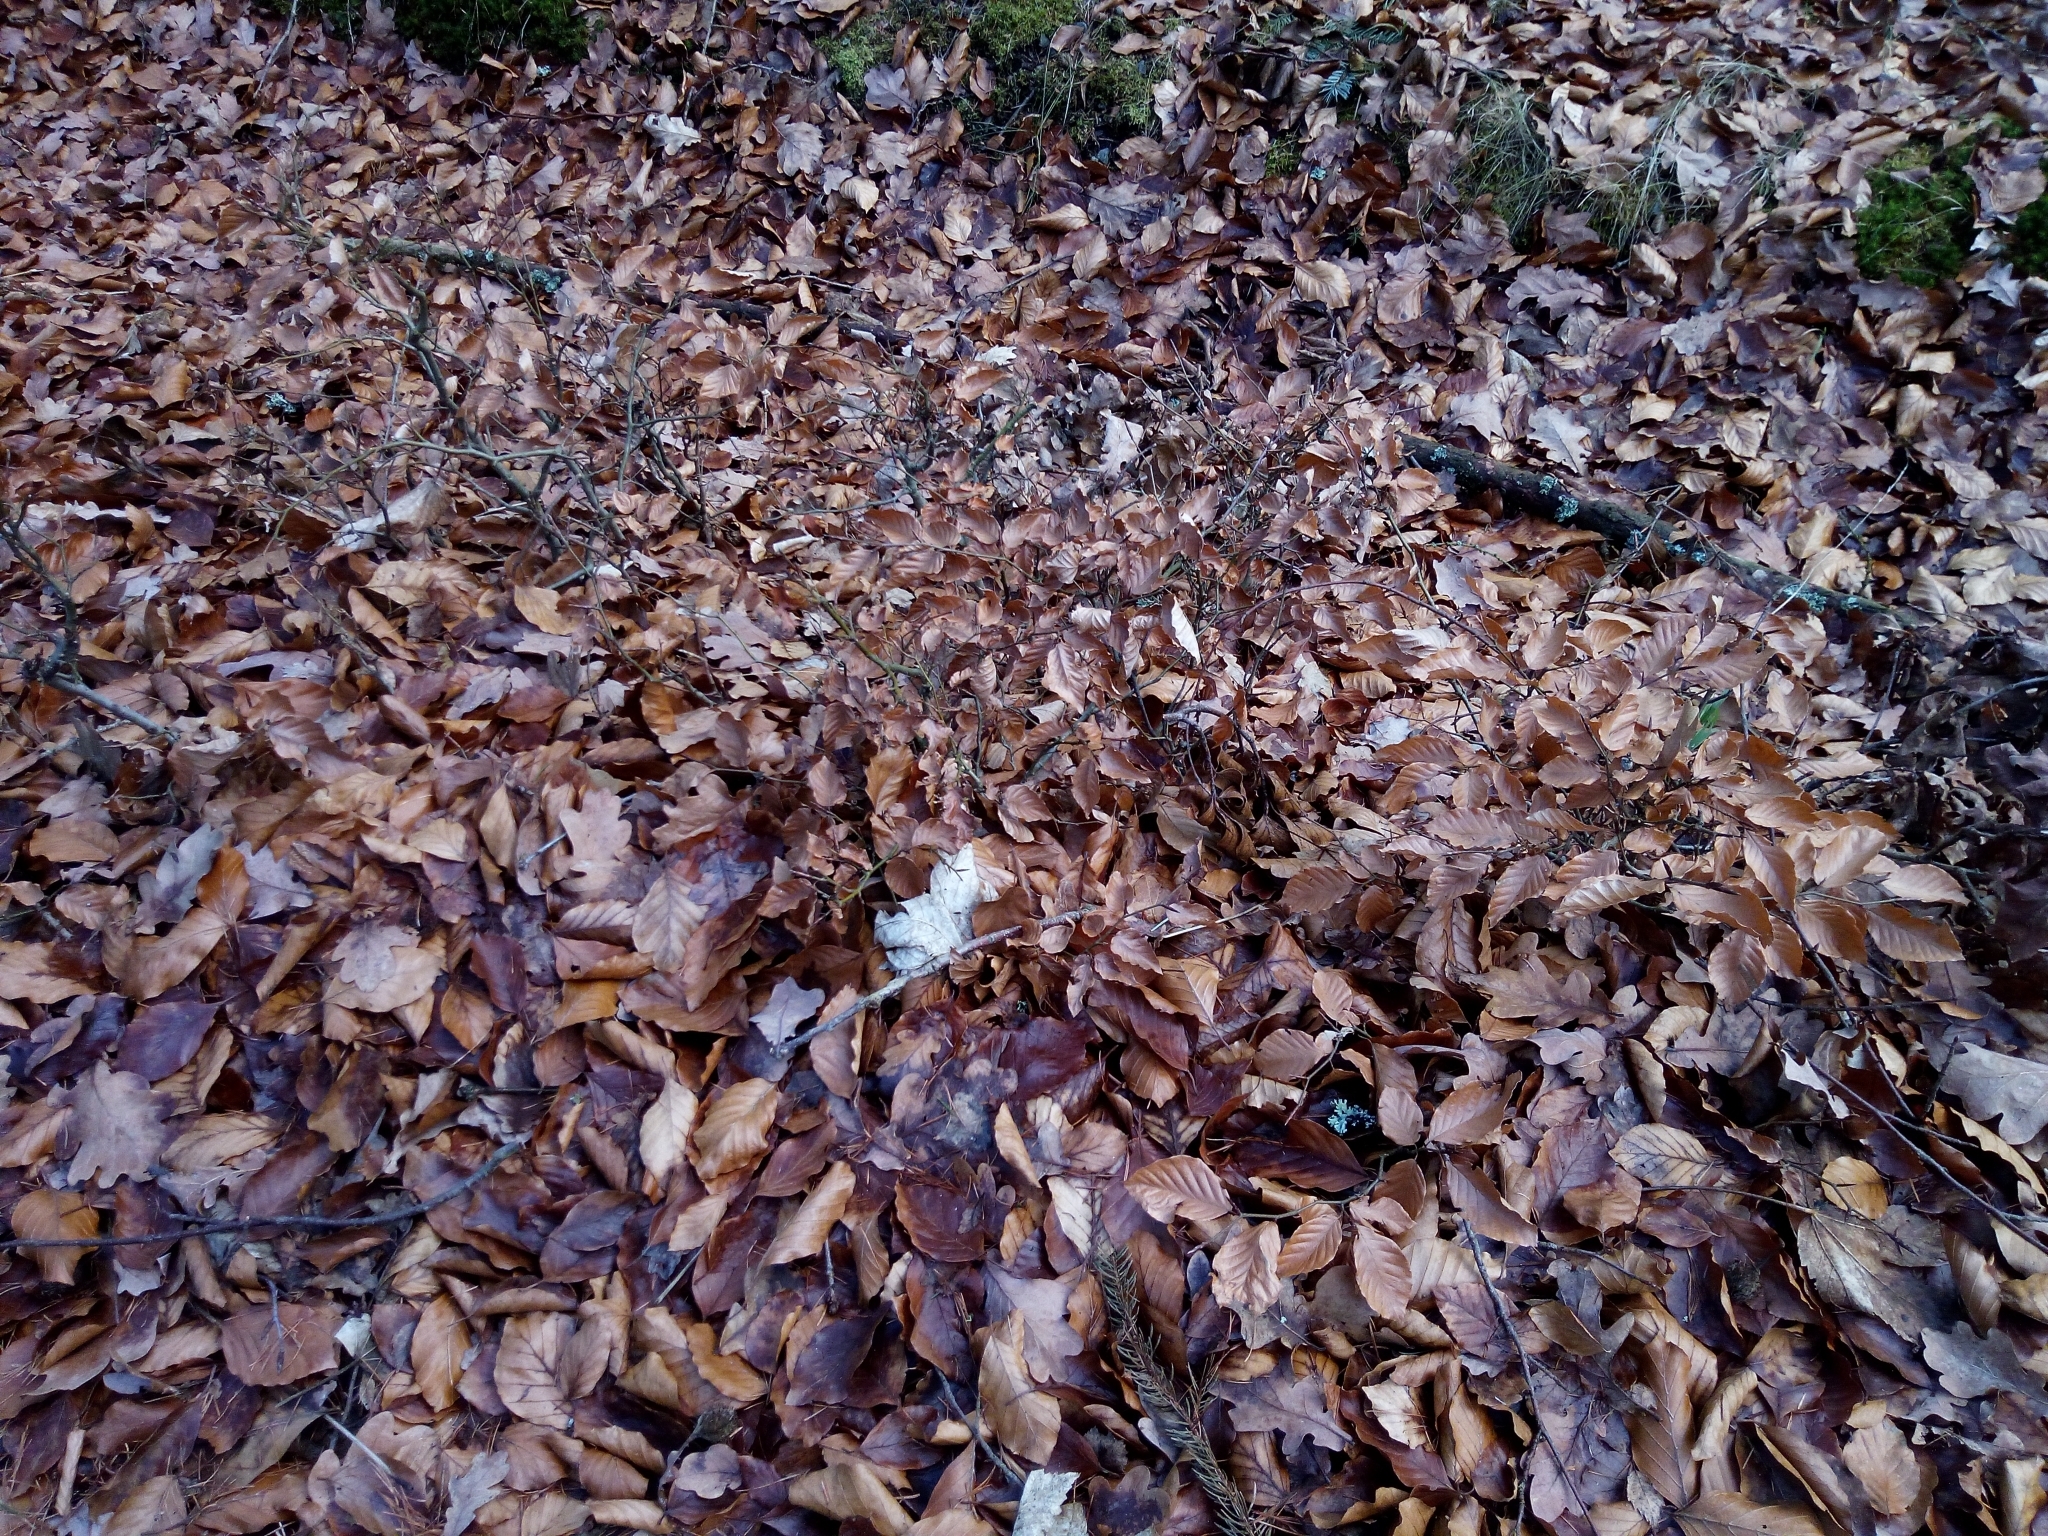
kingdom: Plantae
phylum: Tracheophyta
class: Magnoliopsida
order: Fagales
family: Fagaceae
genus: Fagus
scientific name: Fagus sylvatica
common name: Beech
